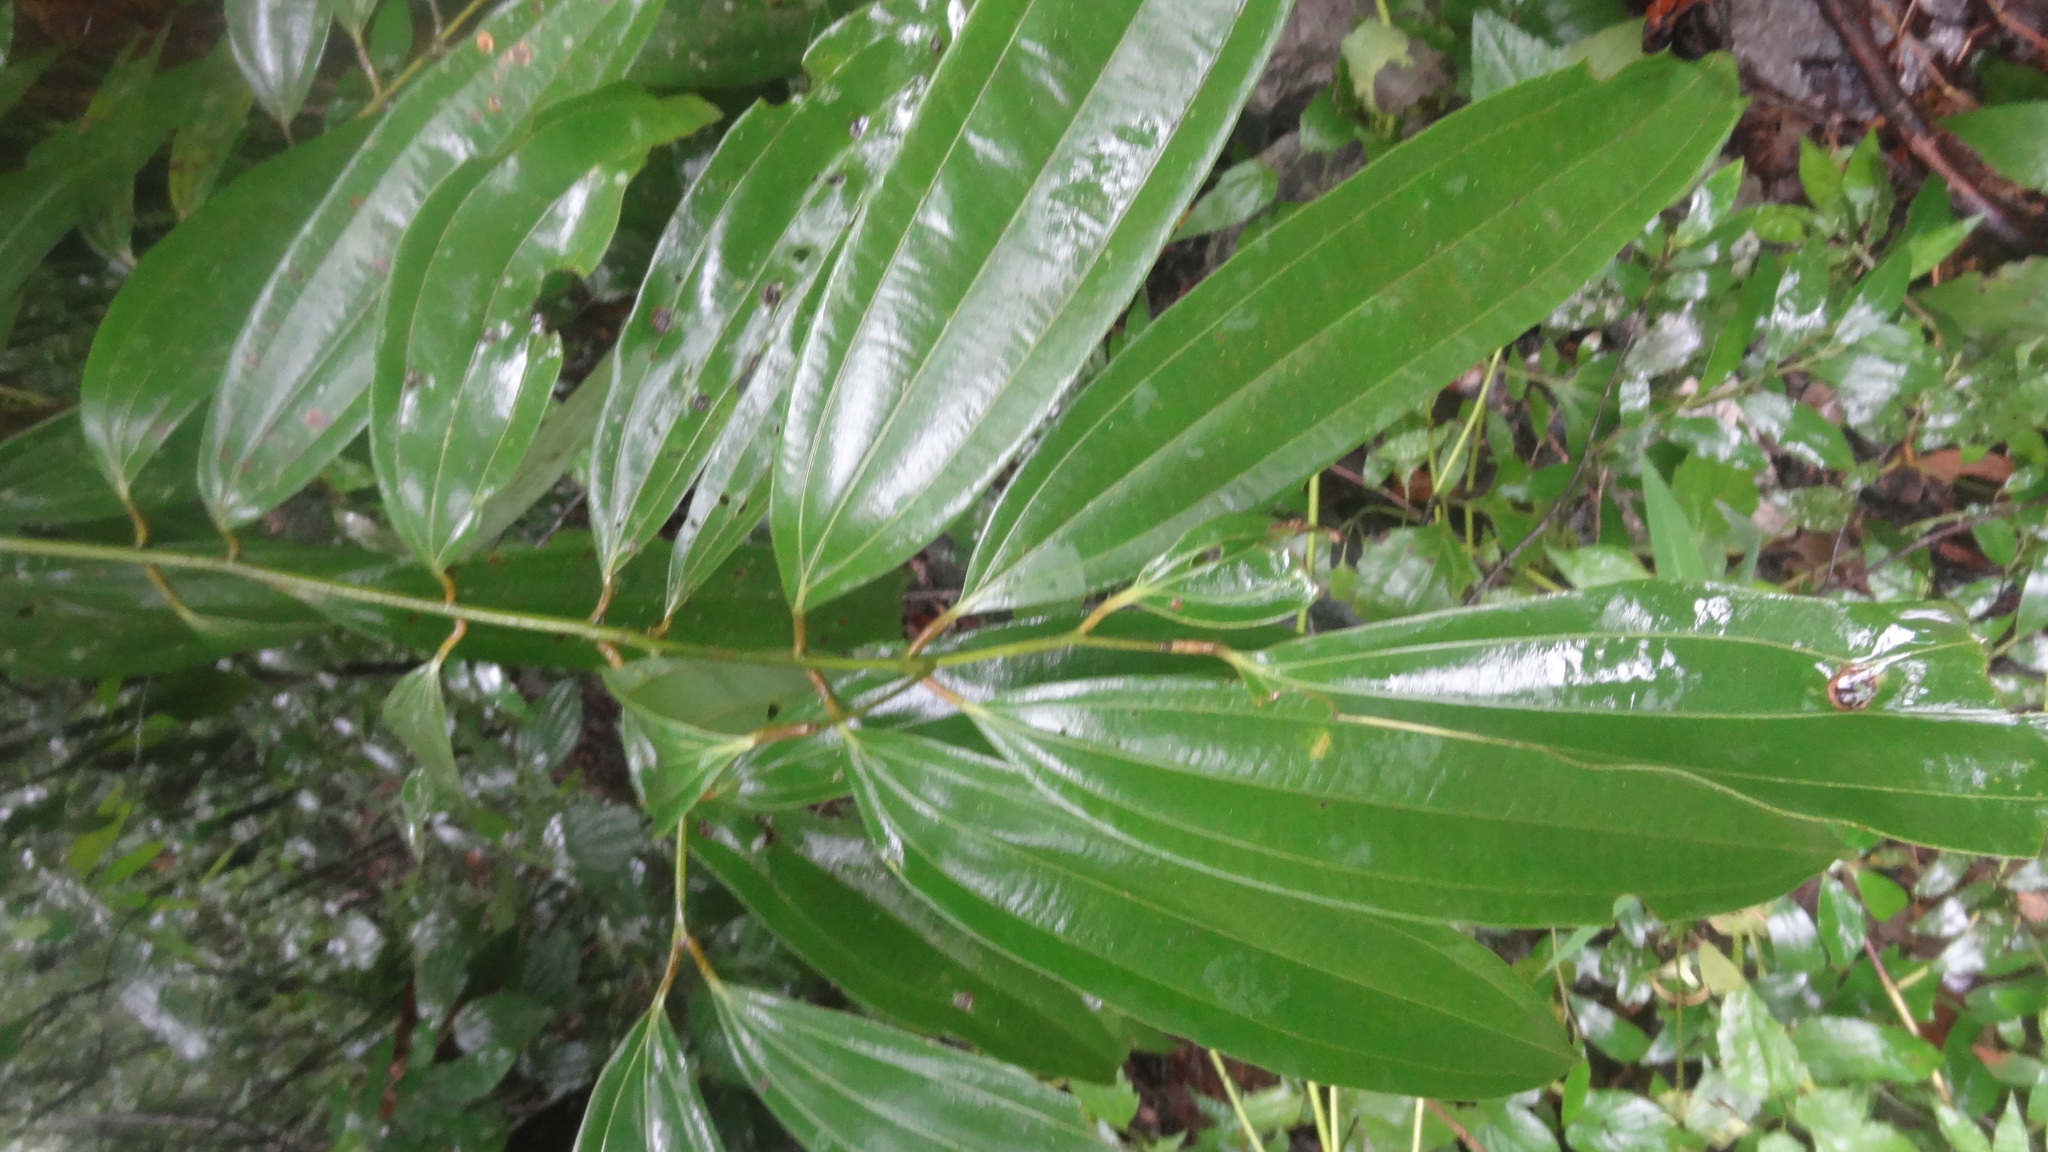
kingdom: Plantae
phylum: Tracheophyta
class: Magnoliopsida
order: Laurales
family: Lauraceae
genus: Cinnamomum
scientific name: Cinnamomum malabatrum
